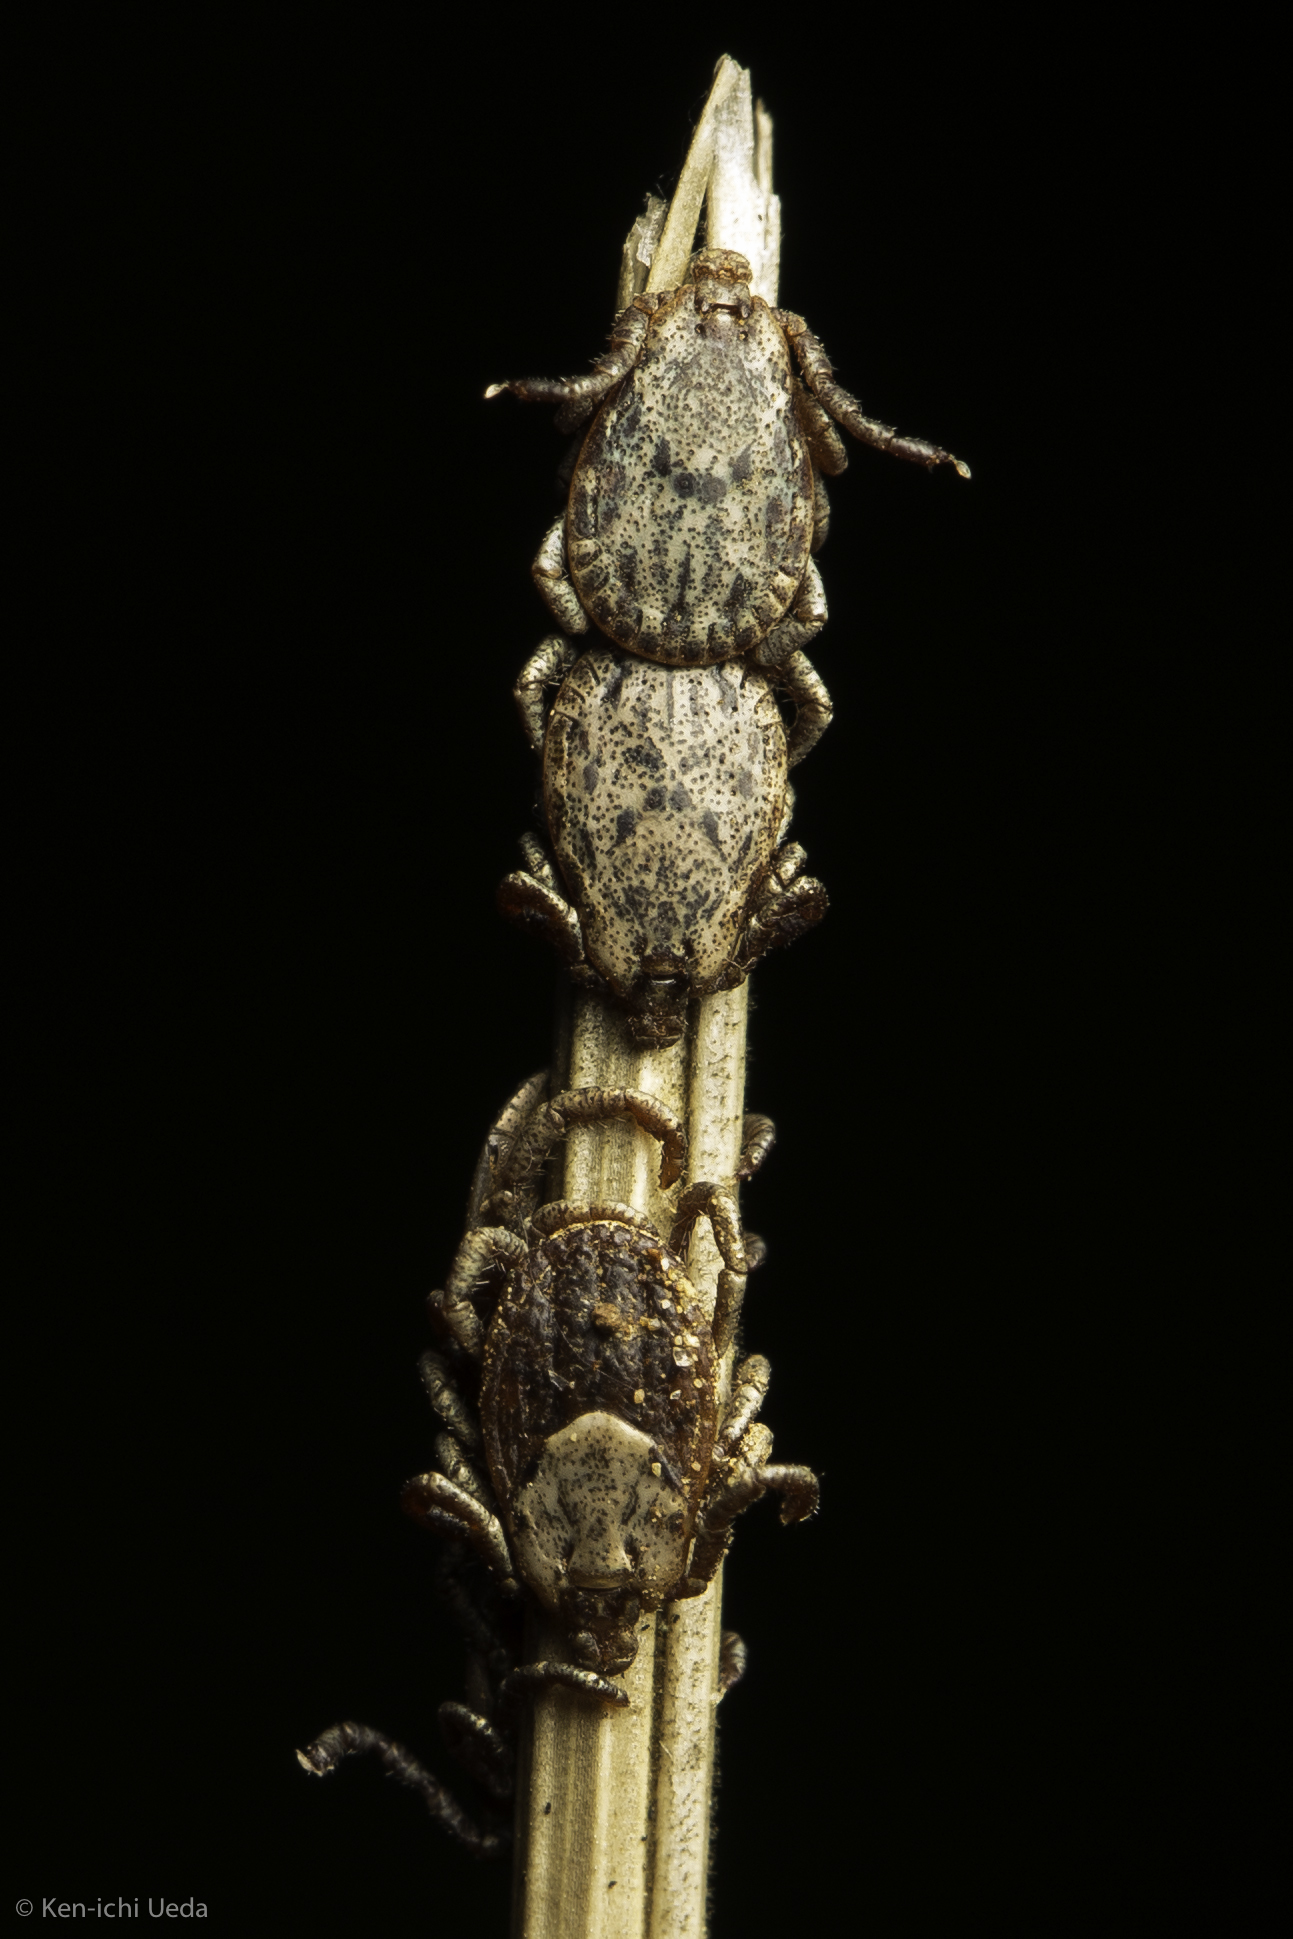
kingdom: Animalia
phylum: Arthropoda
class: Arachnida
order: Ixodida
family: Ixodidae
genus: Dermacentor
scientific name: Dermacentor occidentalis
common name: Net tick
